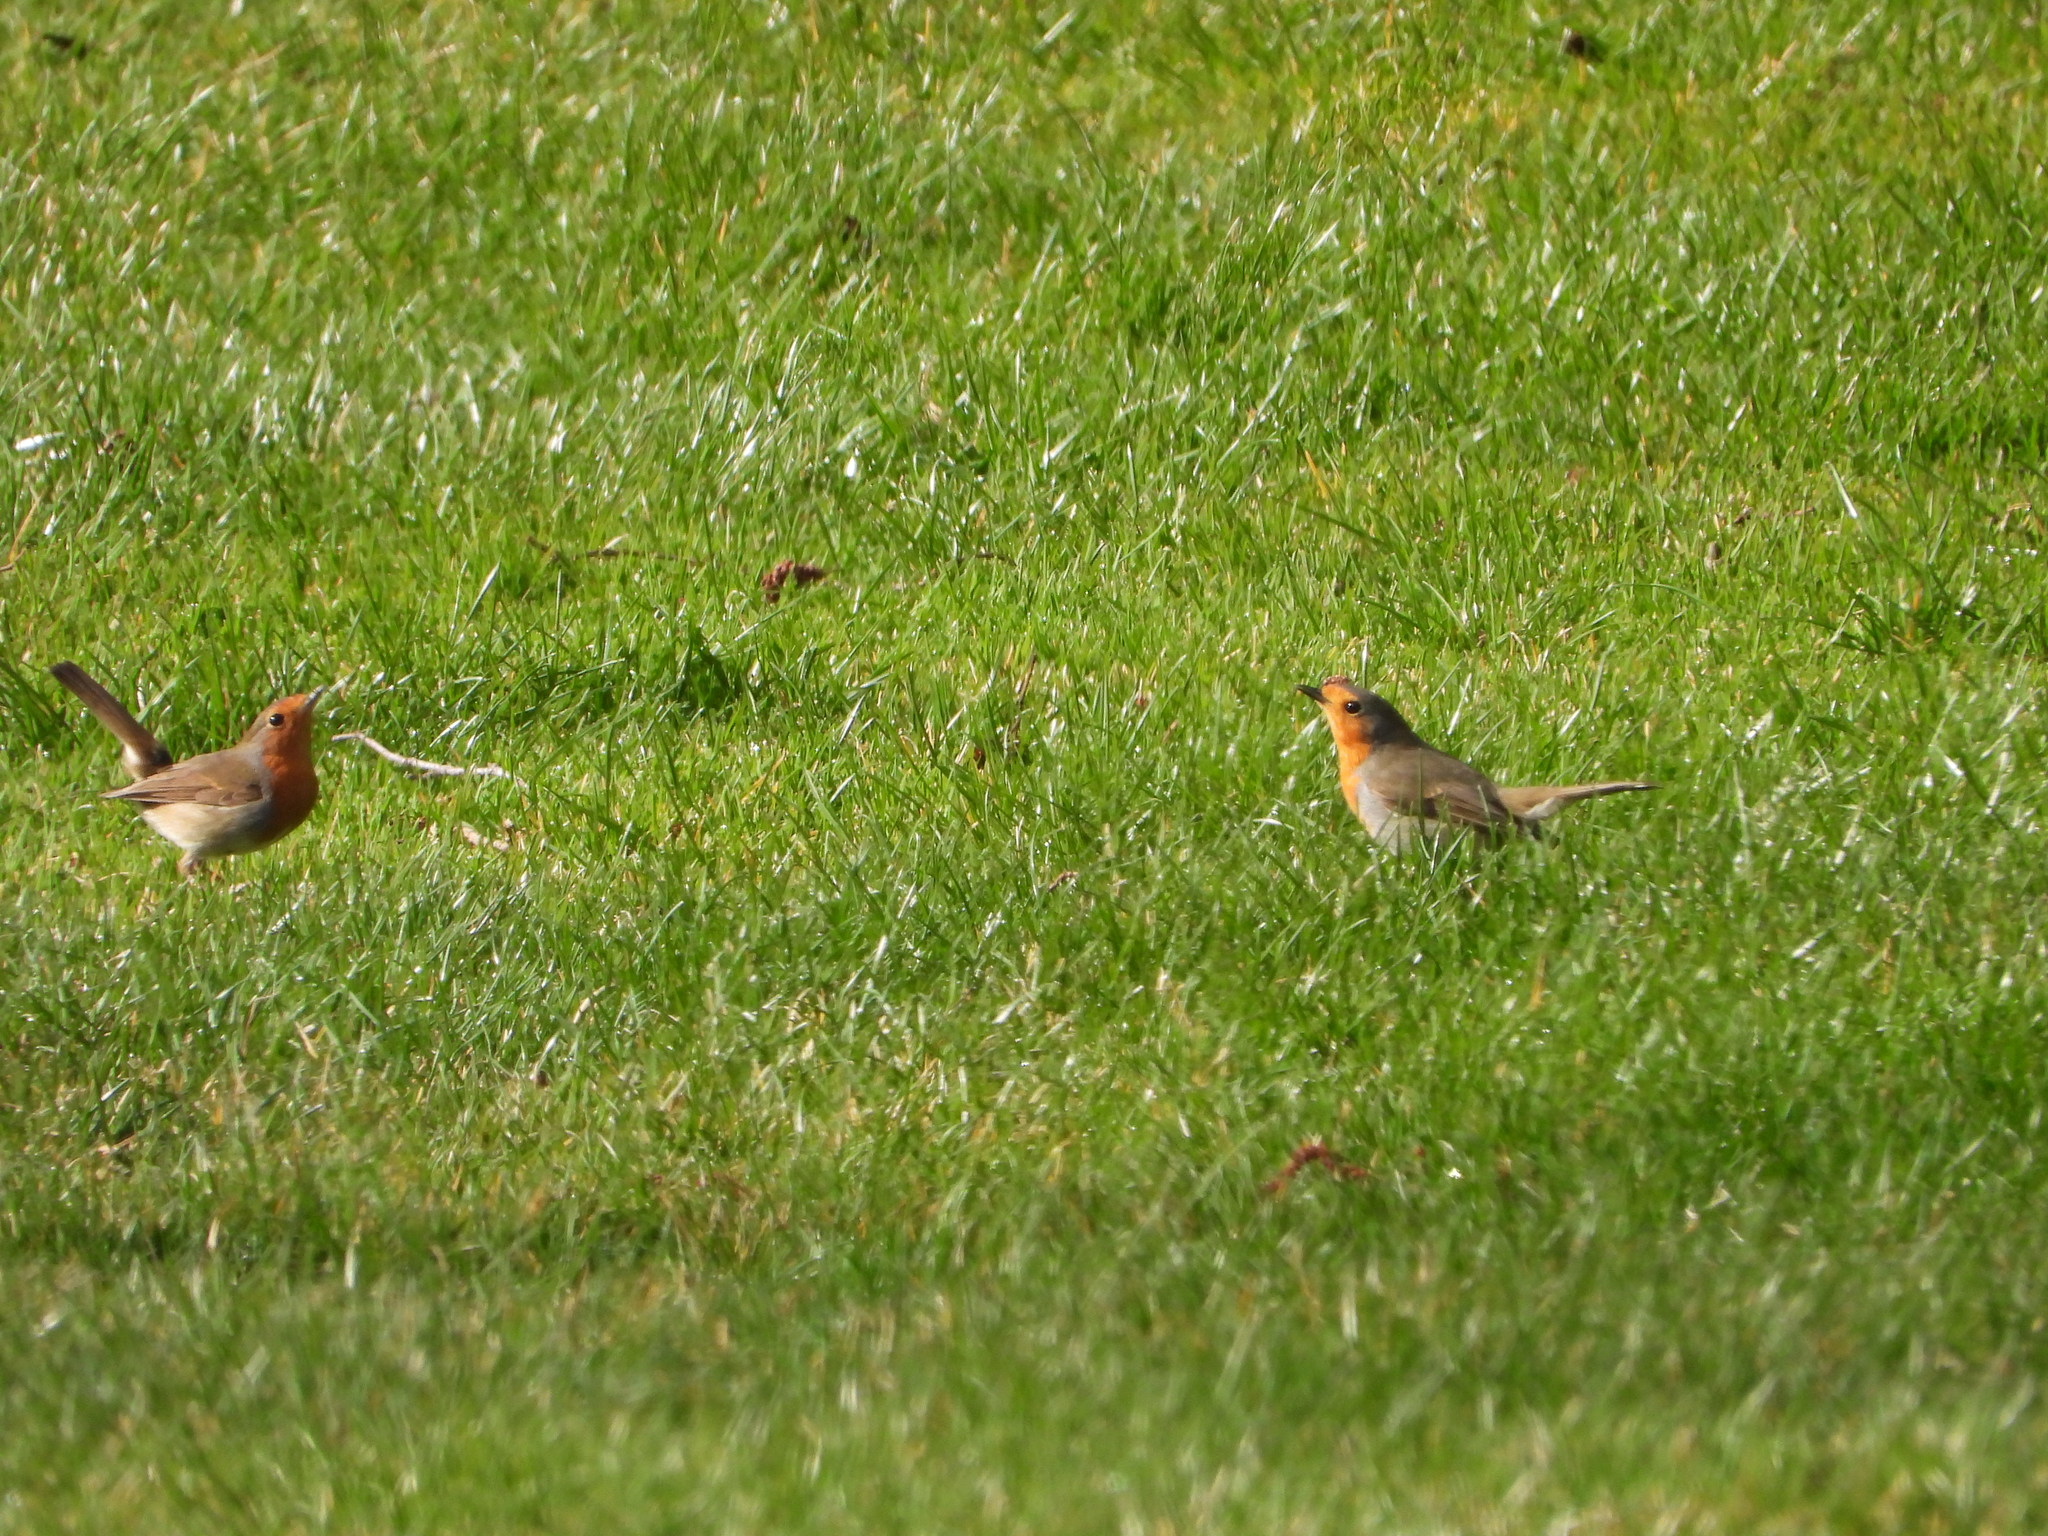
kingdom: Animalia
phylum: Chordata
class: Aves
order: Passeriformes
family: Muscicapidae
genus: Erithacus
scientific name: Erithacus rubecula
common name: European robin
